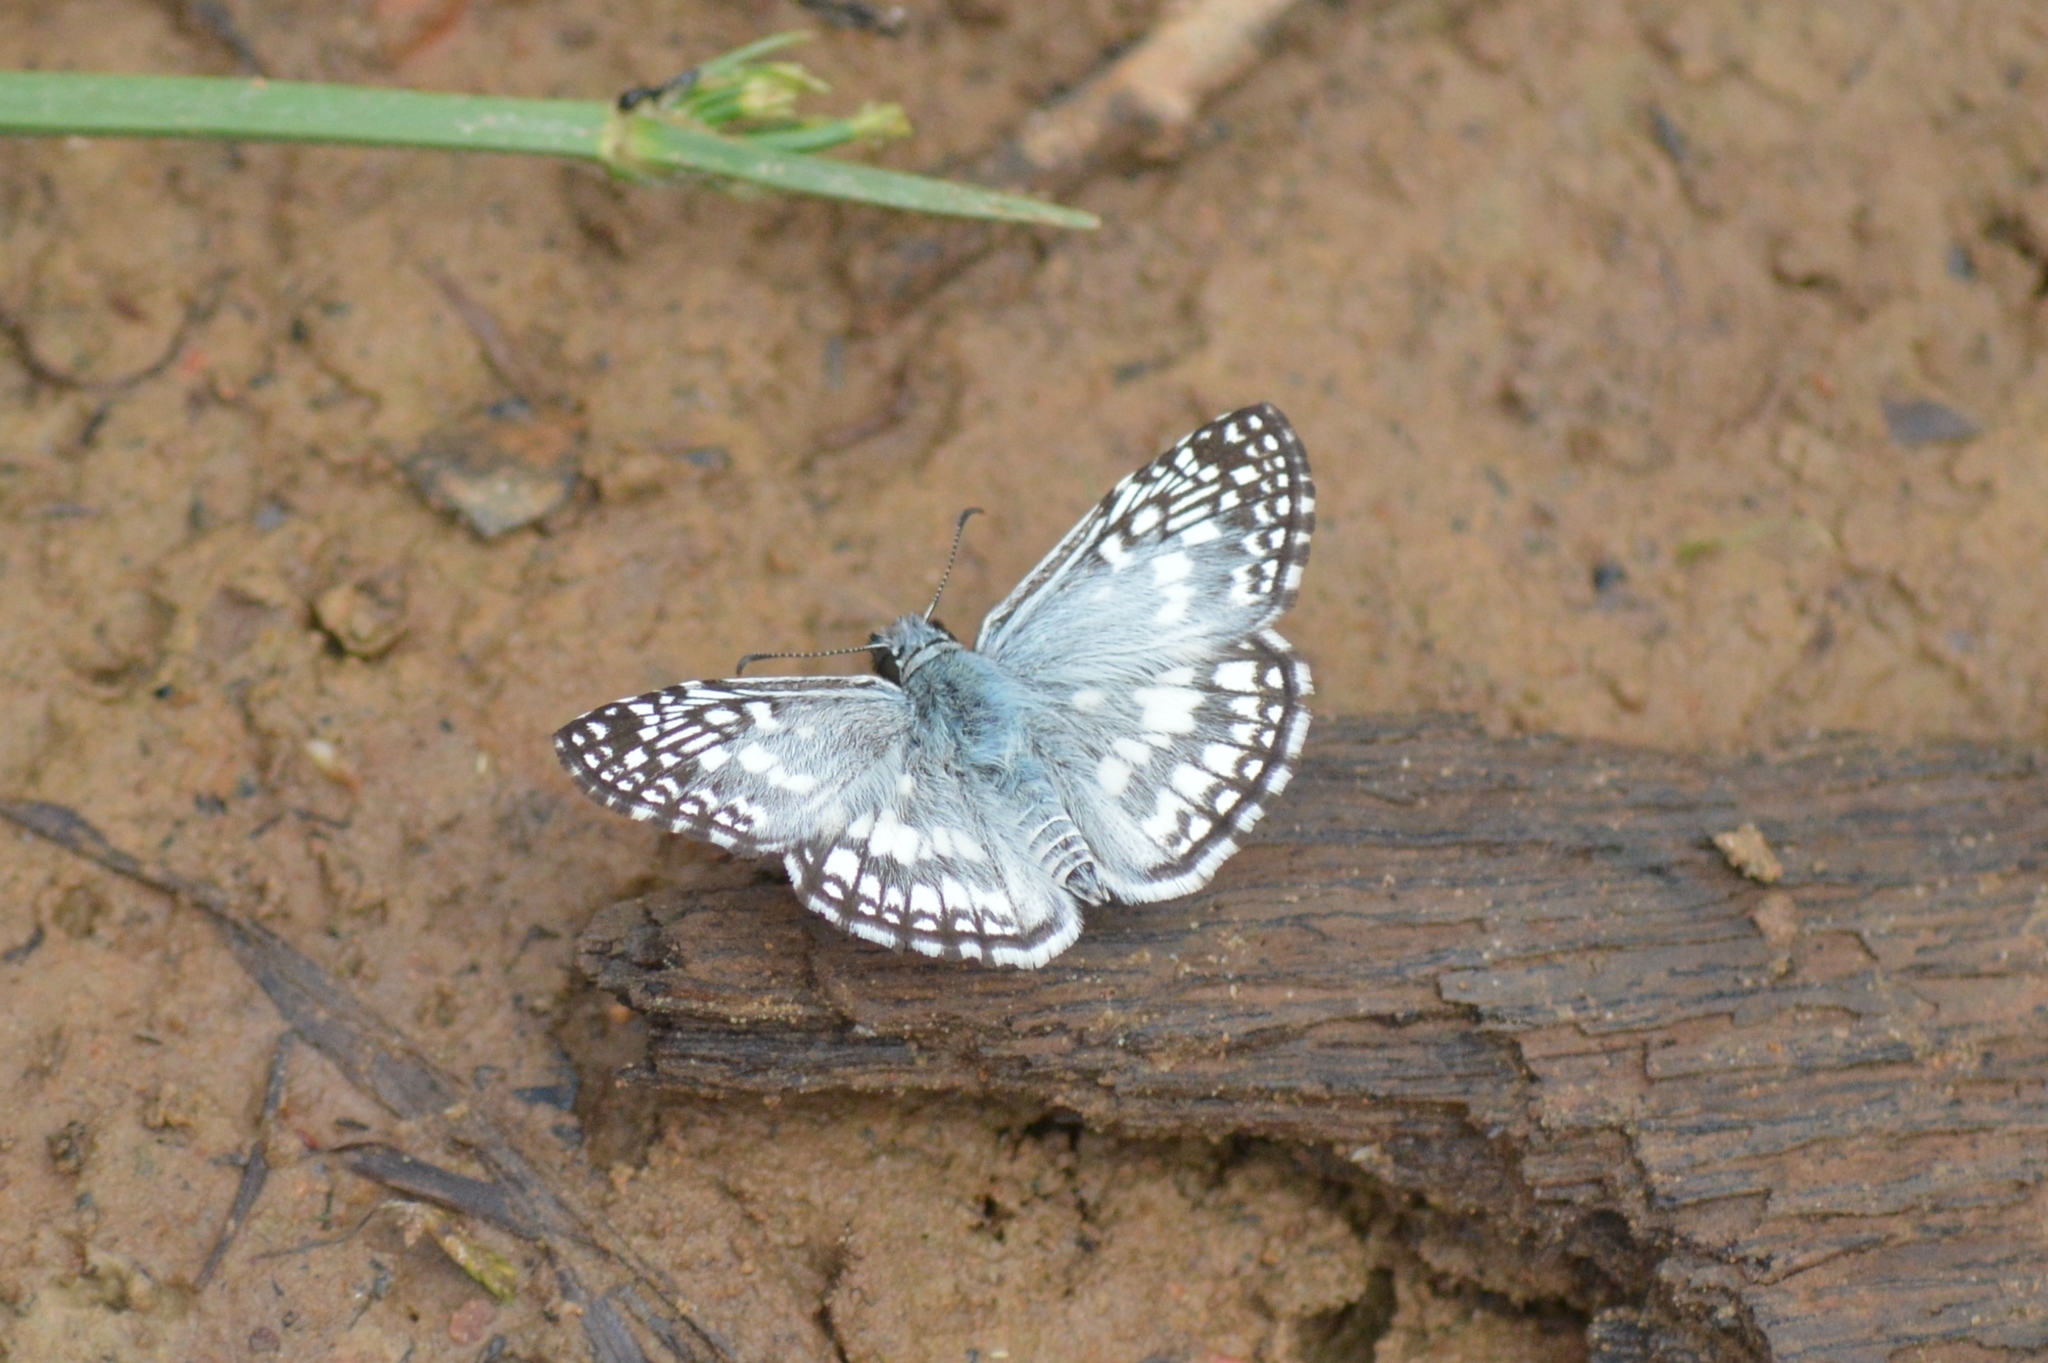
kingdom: Animalia
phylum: Arthropoda
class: Insecta
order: Lepidoptera
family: Hesperiidae
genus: Pyrgus
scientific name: Pyrgus oileus
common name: Tropical checkered-skipper
